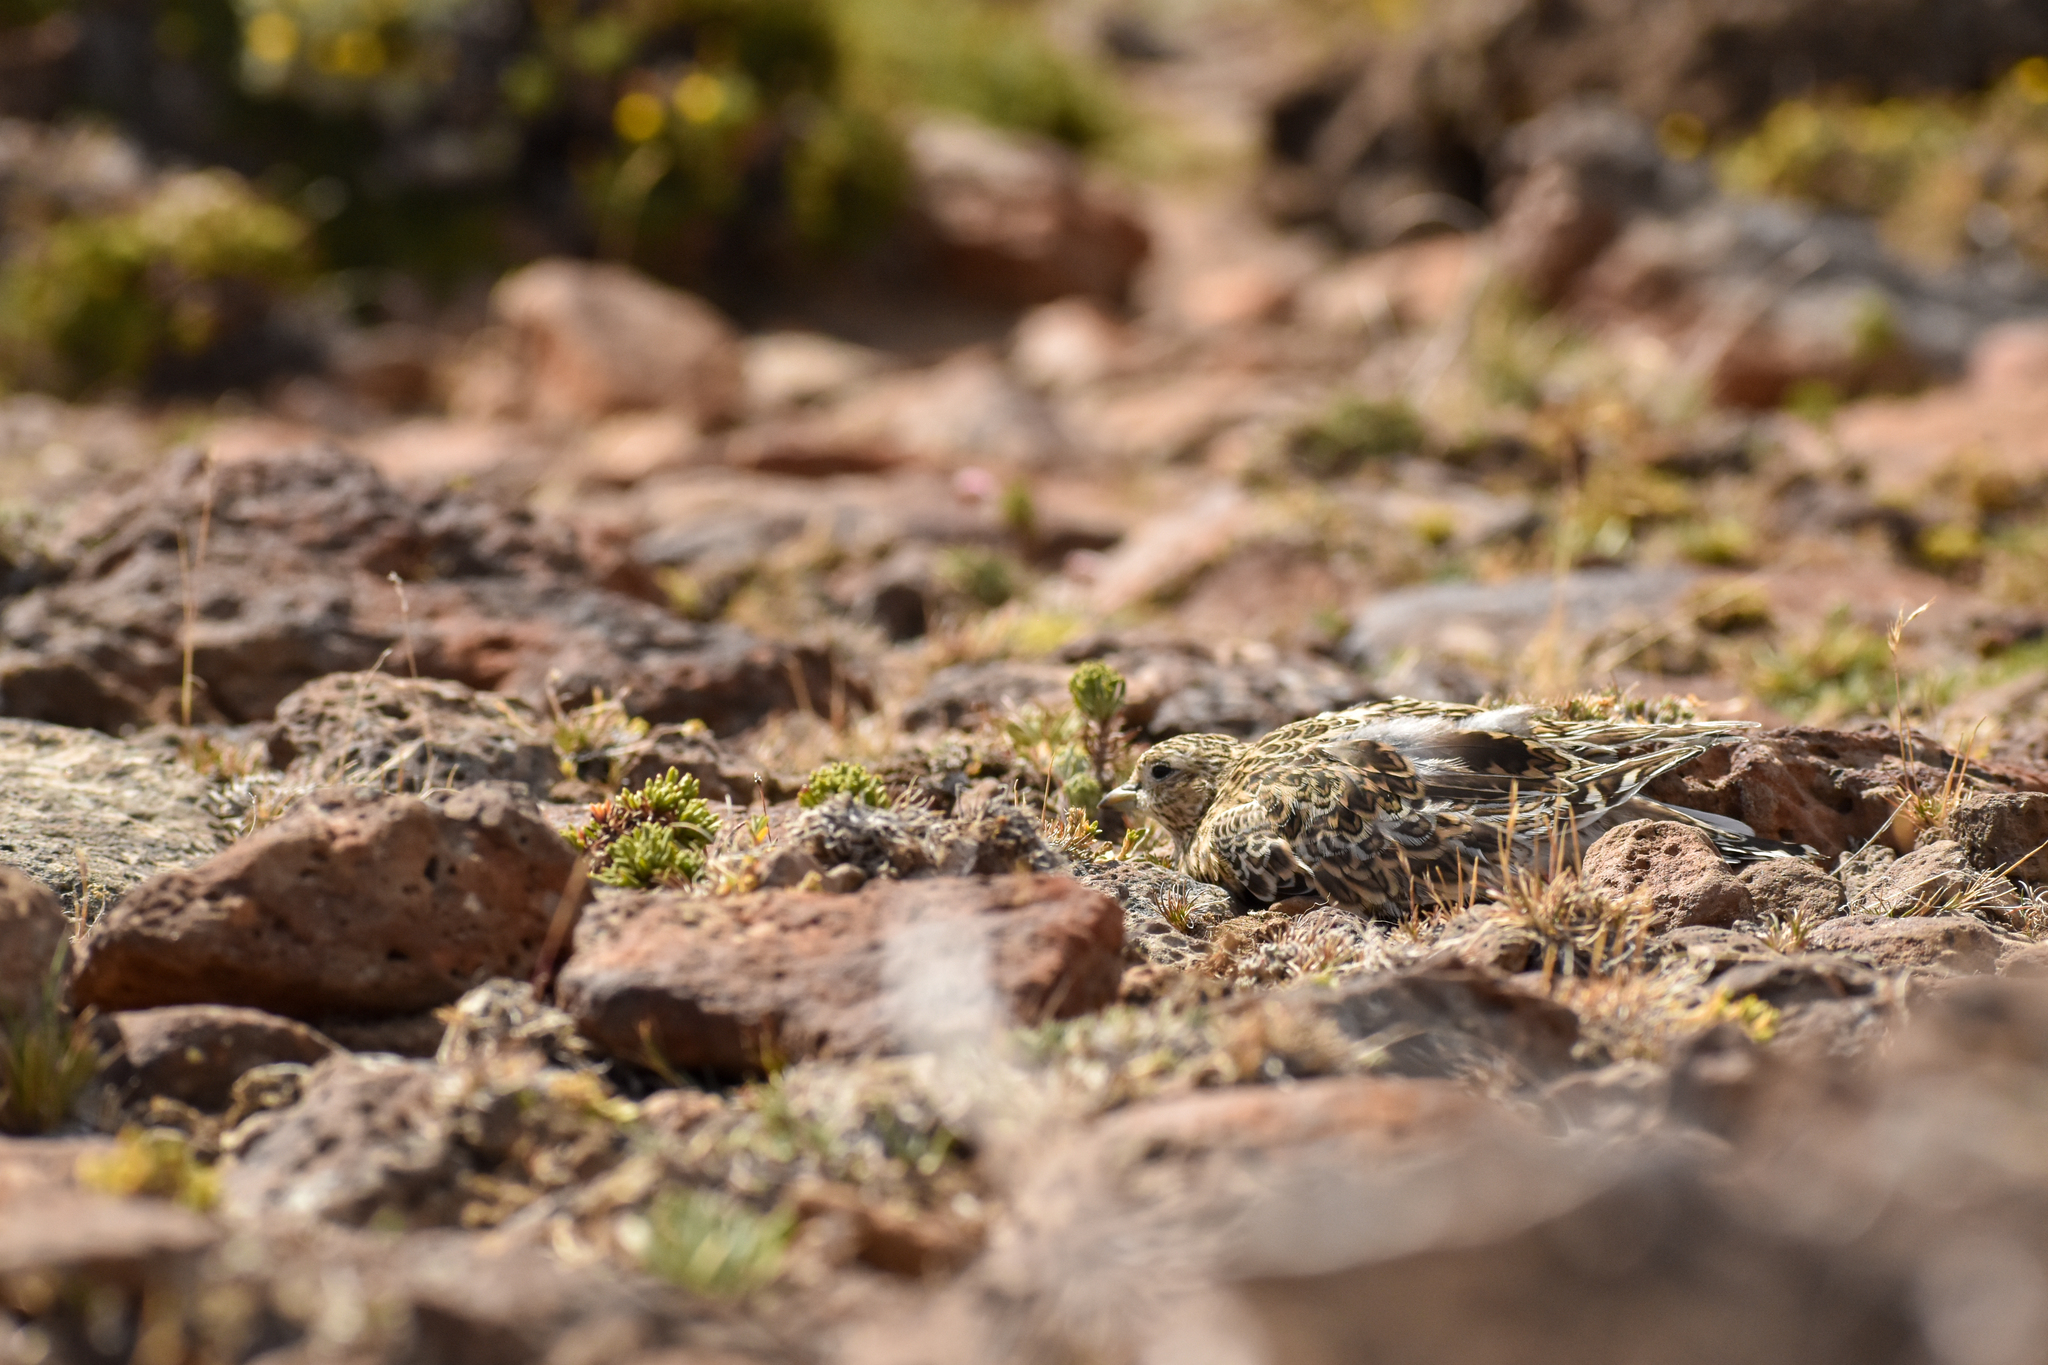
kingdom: Animalia
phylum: Chordata
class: Aves
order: Charadriiformes
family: Thinocoridae
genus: Thinocorus
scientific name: Thinocorus rumicivorus
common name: Least seedsnipe
